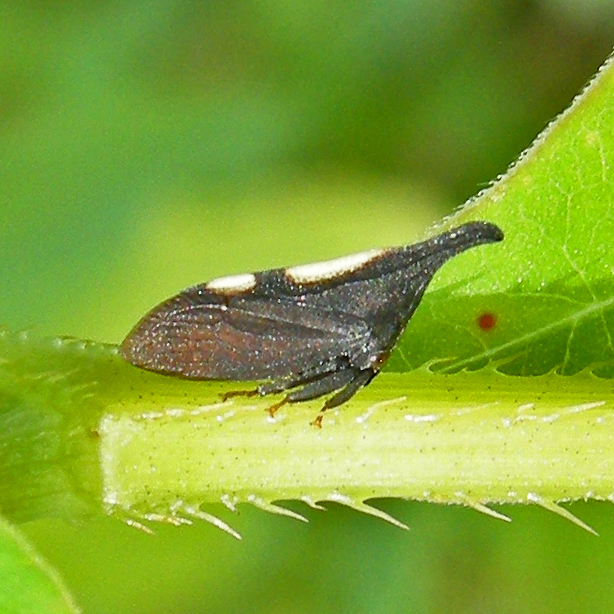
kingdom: Animalia
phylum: Arthropoda
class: Insecta
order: Hemiptera
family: Membracidae
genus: Enchenopa
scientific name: Enchenopa
